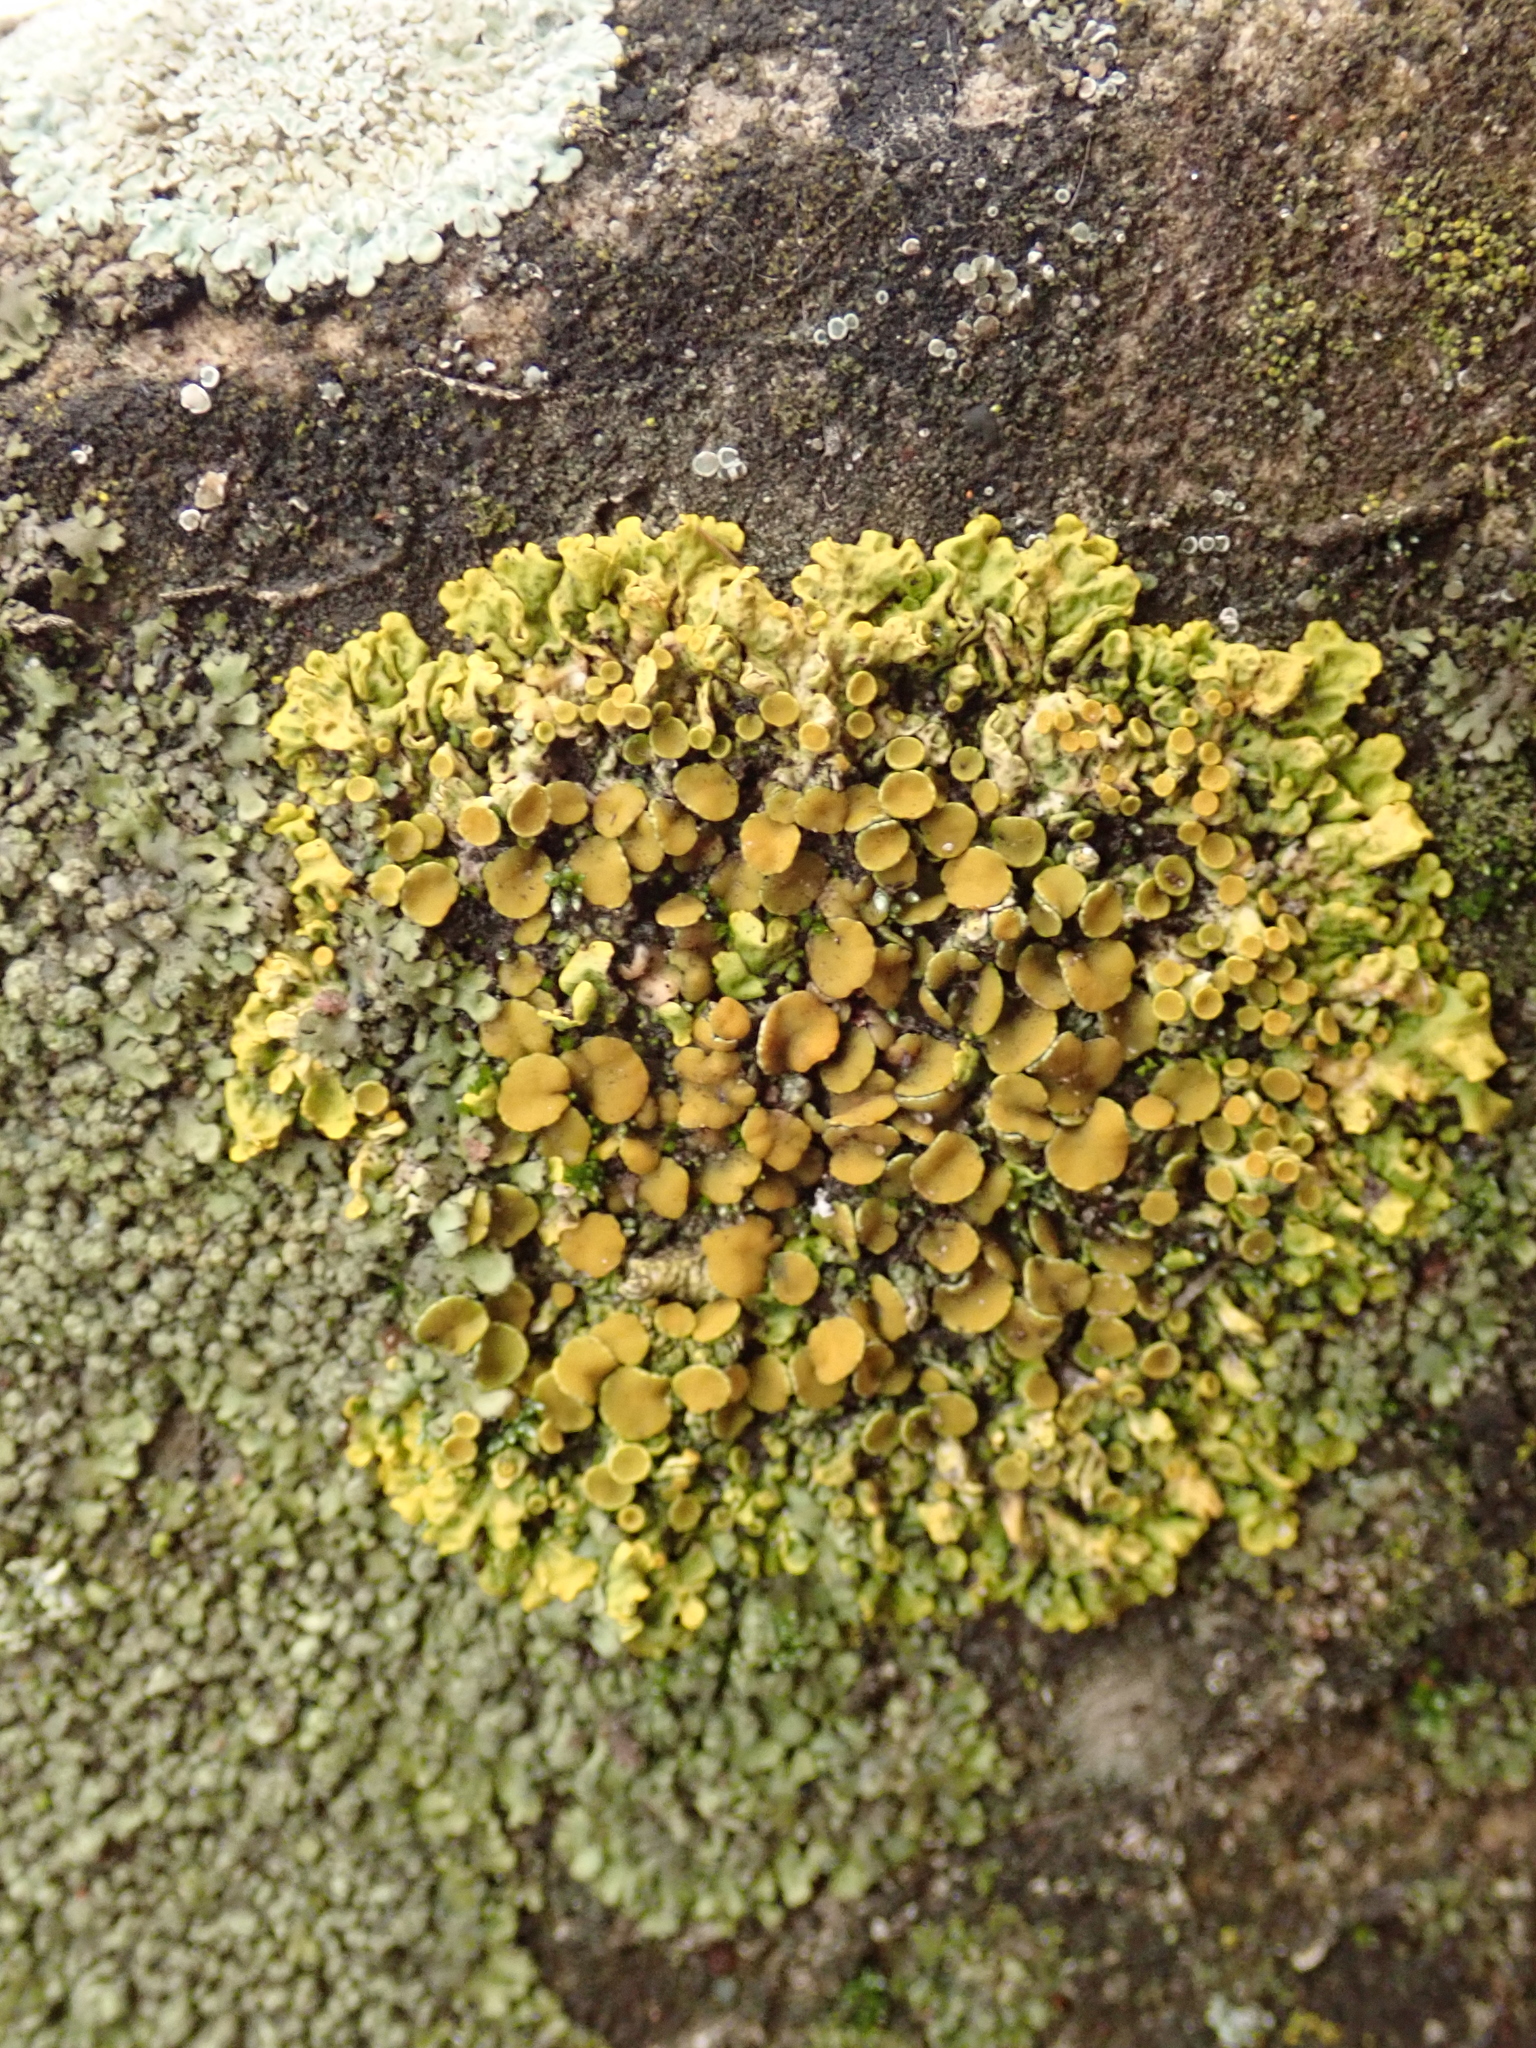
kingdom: Fungi
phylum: Ascomycota
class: Lecanoromycetes
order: Teloschistales
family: Teloschistaceae
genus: Xanthoria
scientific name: Xanthoria parietina
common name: Common orange lichen
